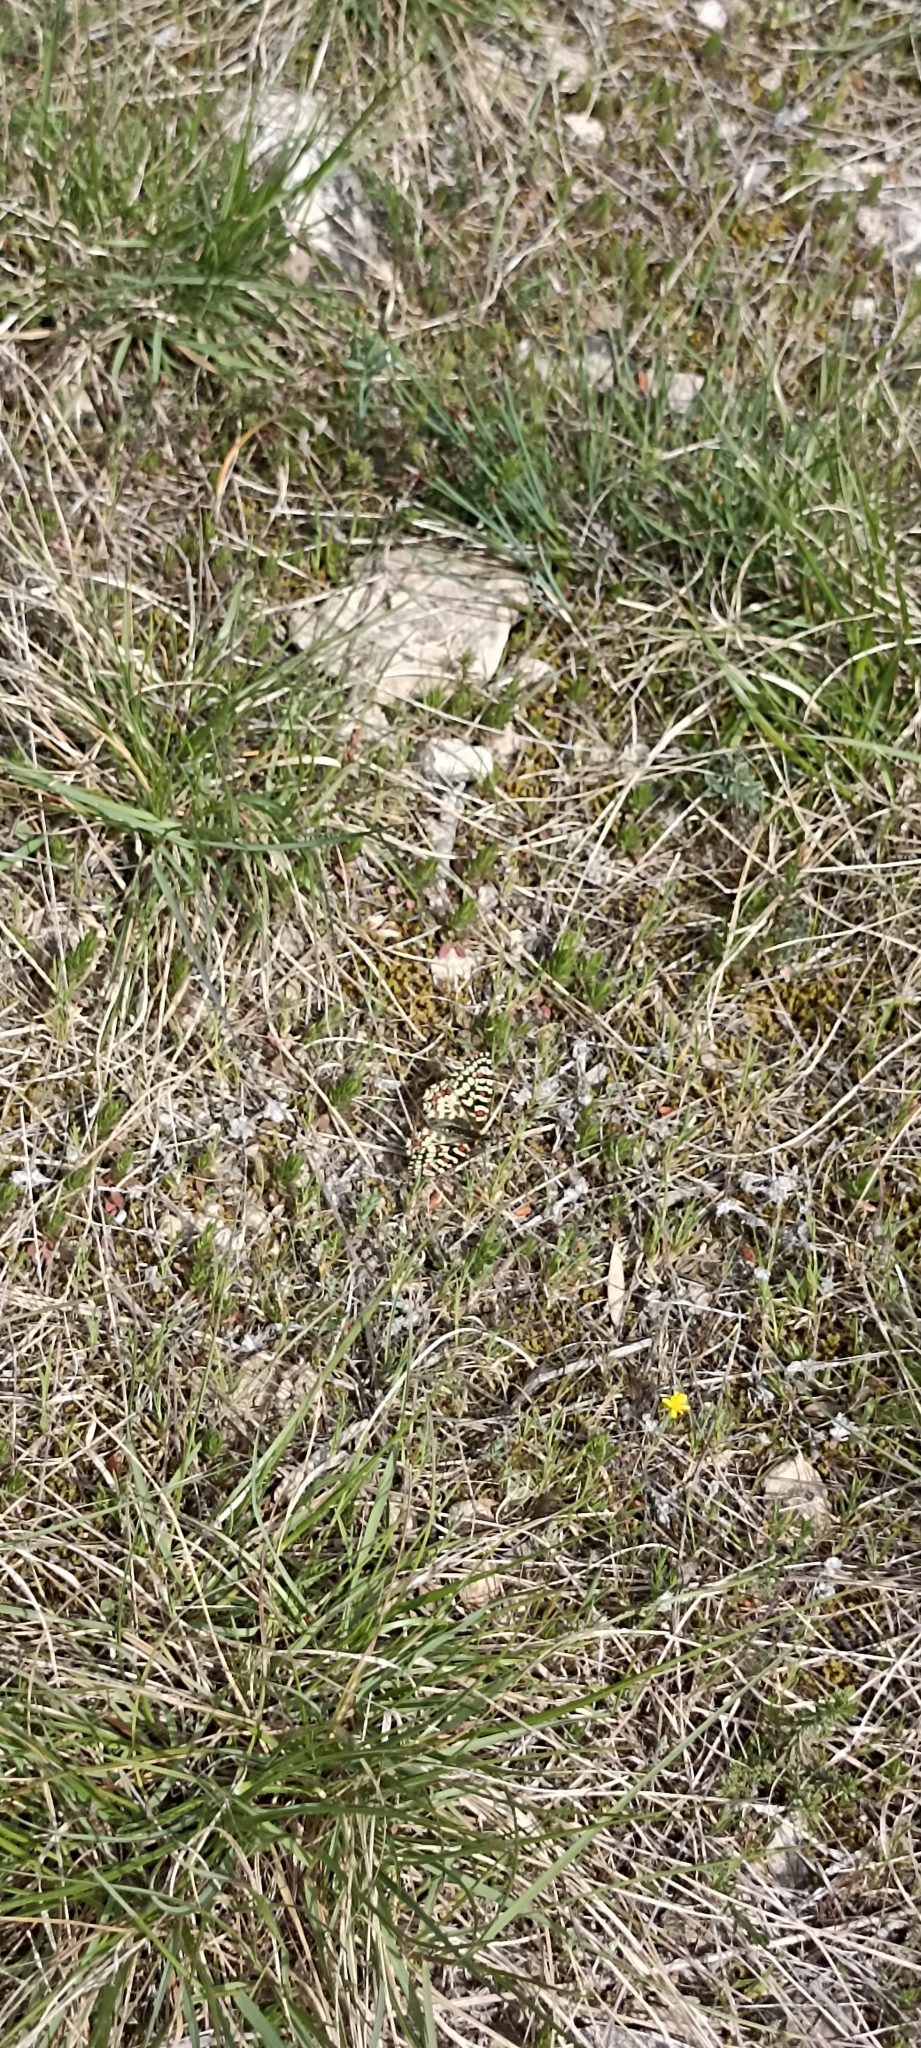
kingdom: Animalia
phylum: Arthropoda
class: Insecta
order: Lepidoptera
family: Papilionidae
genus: Zerynthia
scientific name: Zerynthia rumina
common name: Spanish festoon
